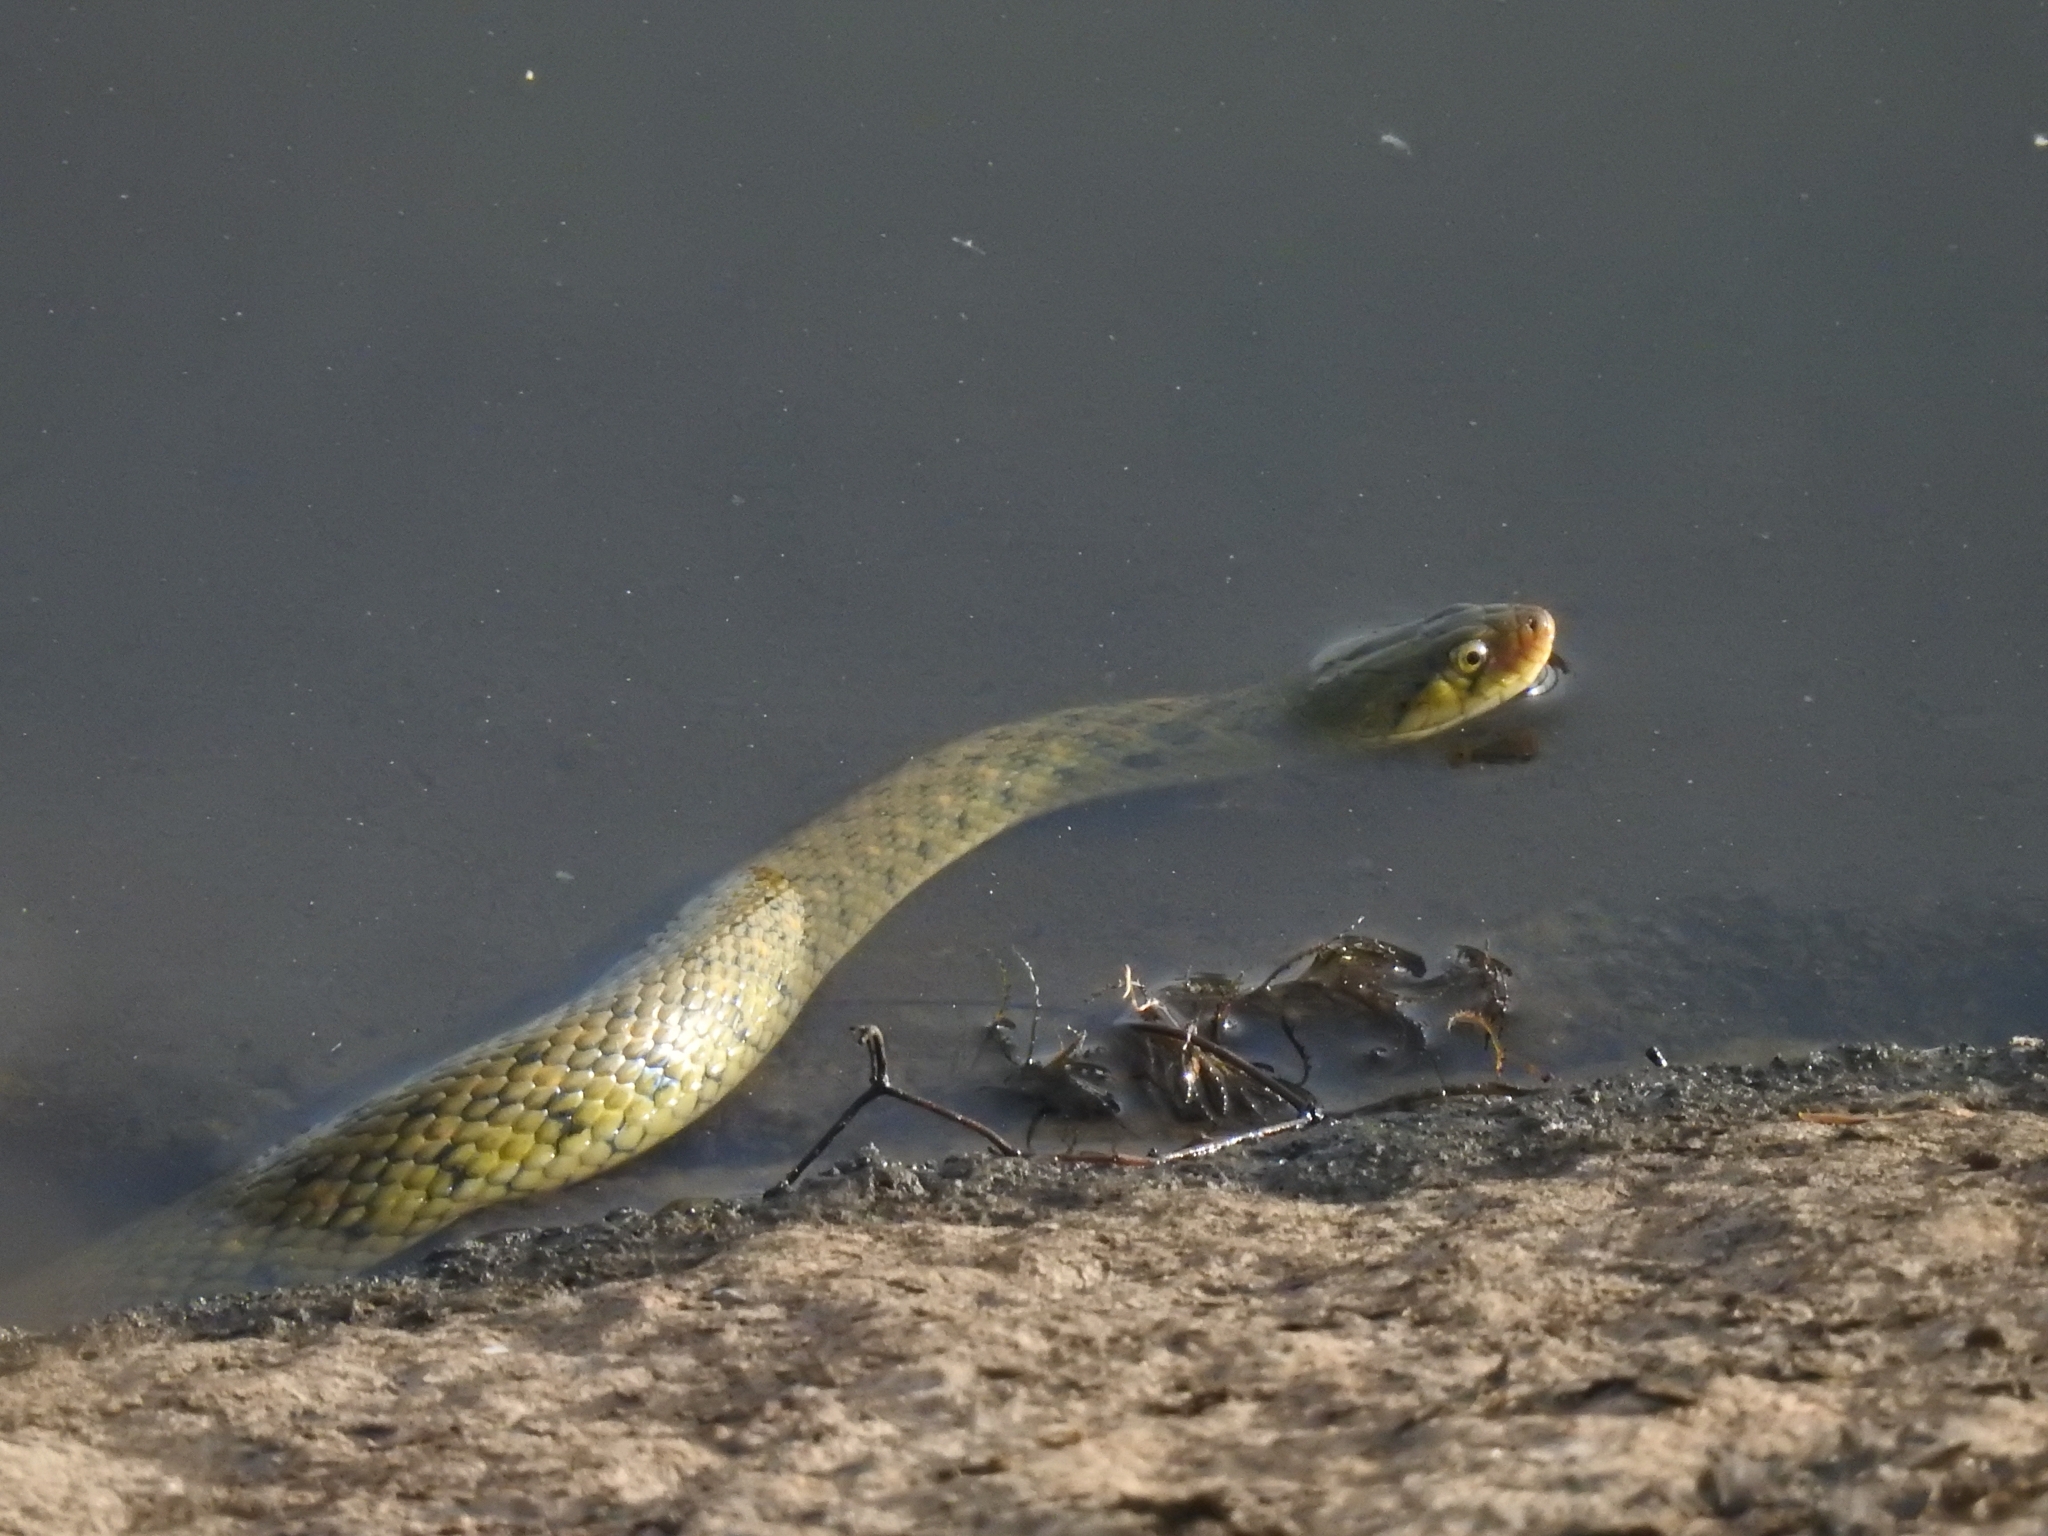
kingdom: Animalia
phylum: Chordata
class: Squamata
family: Colubridae
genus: Fowlea
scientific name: Fowlea piscator
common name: Asiatic water snake
